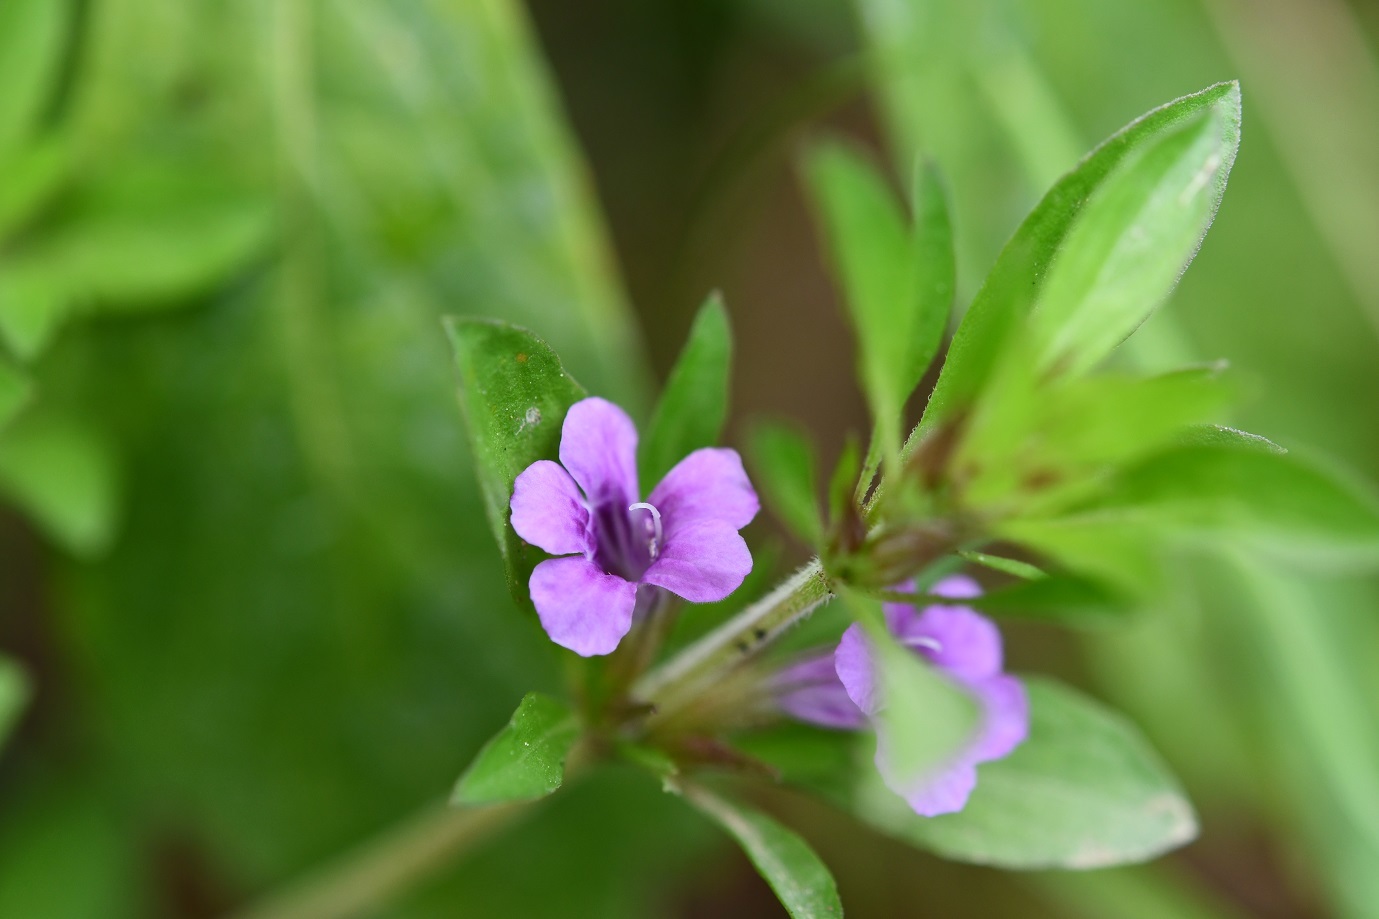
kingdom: Plantae
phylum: Tracheophyta
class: Magnoliopsida
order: Lamiales
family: Acanthaceae
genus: Dyschoriste
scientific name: Dyschoriste capitata
